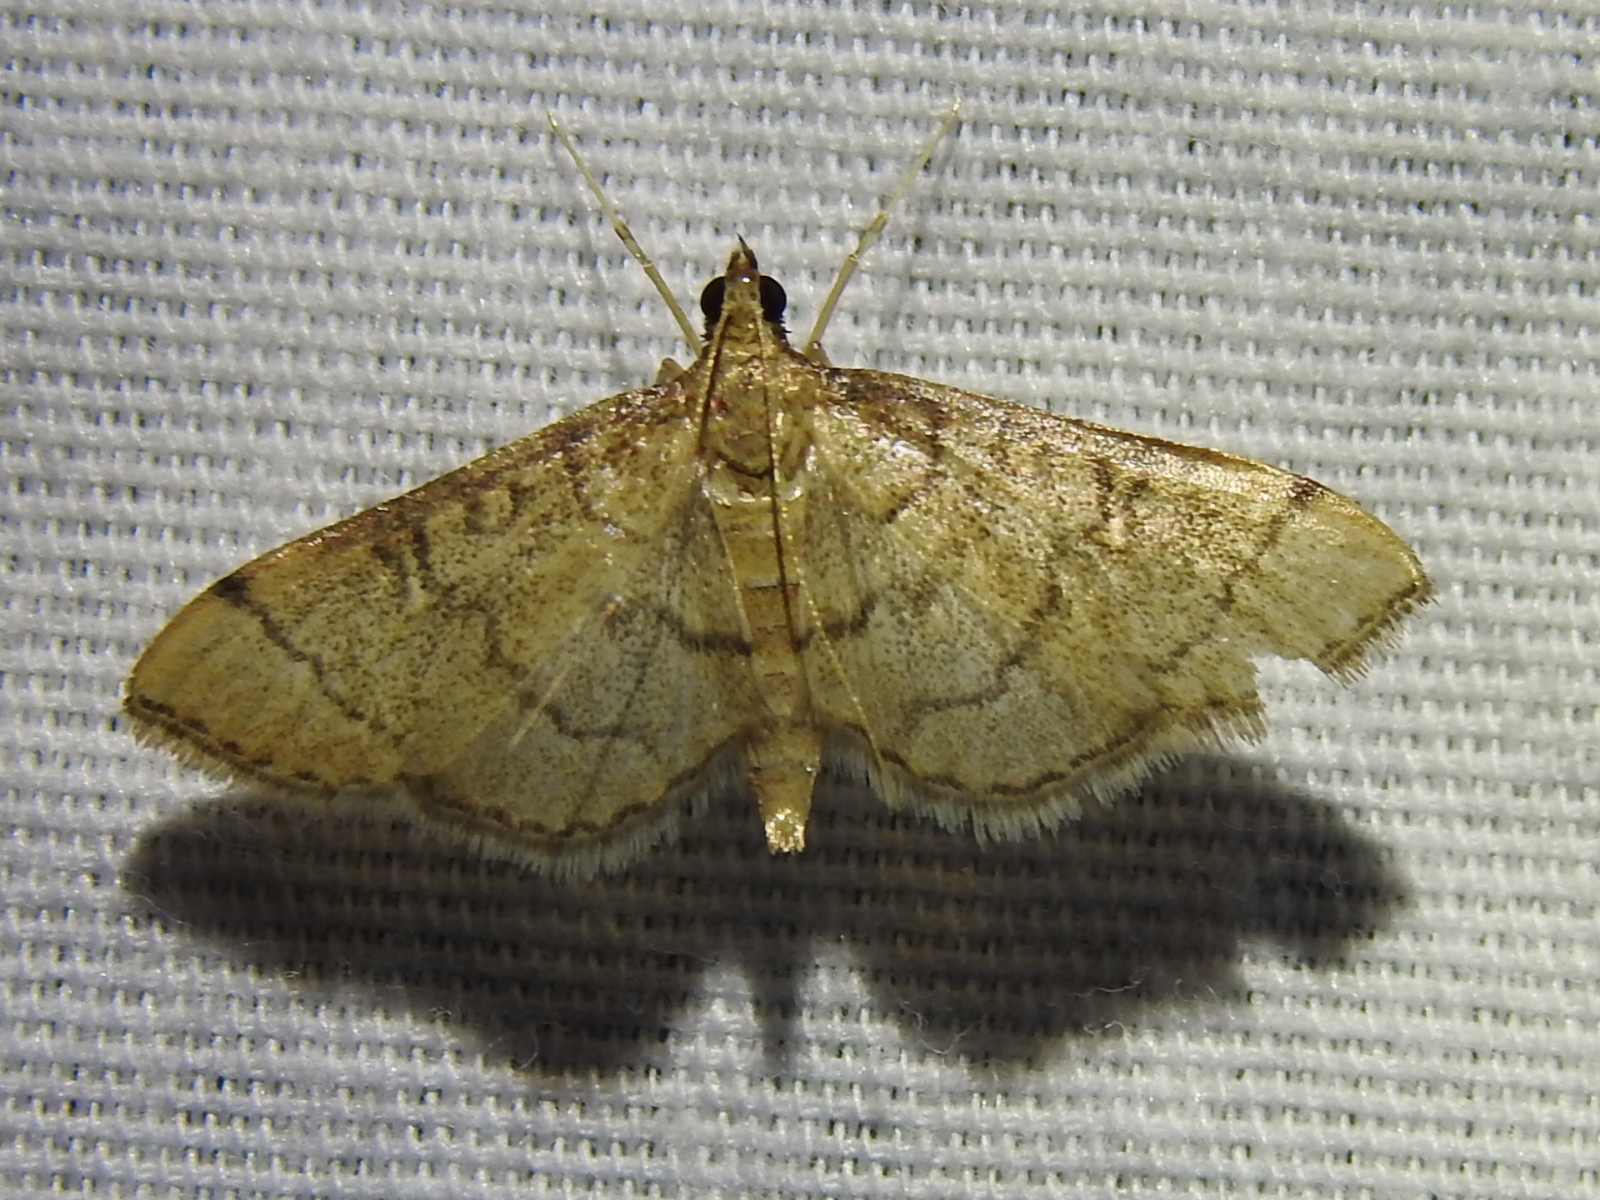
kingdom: Animalia
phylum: Arthropoda
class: Insecta
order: Lepidoptera
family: Crambidae
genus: Lamprosema
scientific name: Lamprosema Blepharomastix ranalis
